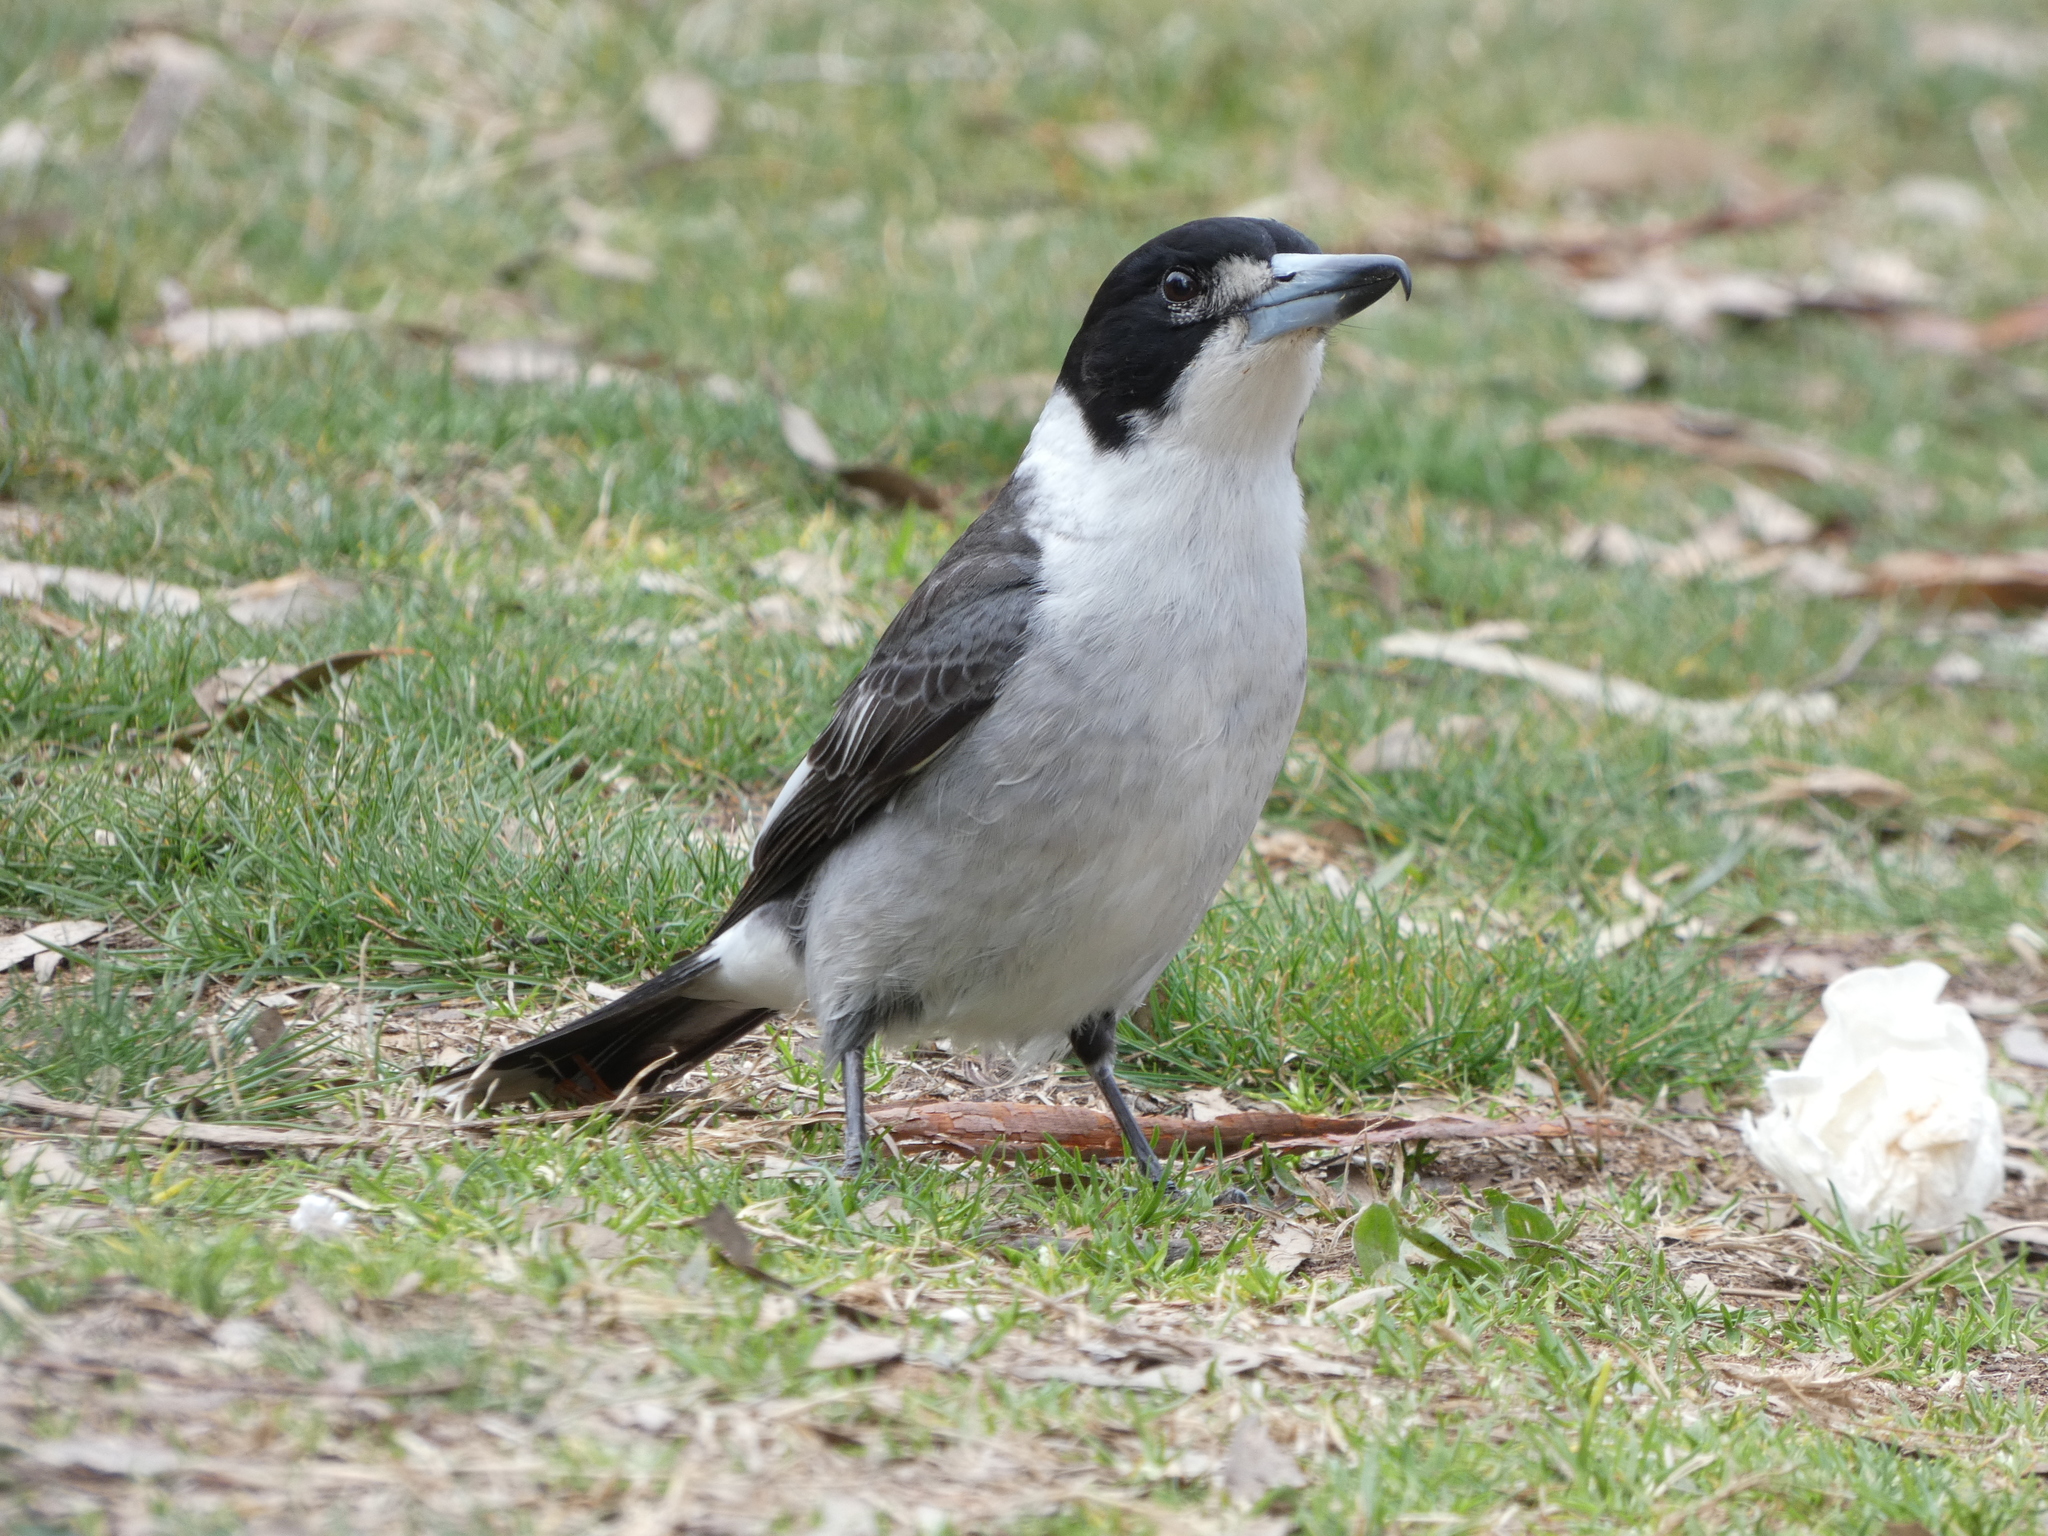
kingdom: Animalia
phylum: Chordata
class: Aves
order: Passeriformes
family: Cracticidae
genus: Cracticus
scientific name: Cracticus torquatus
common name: Grey butcherbird
